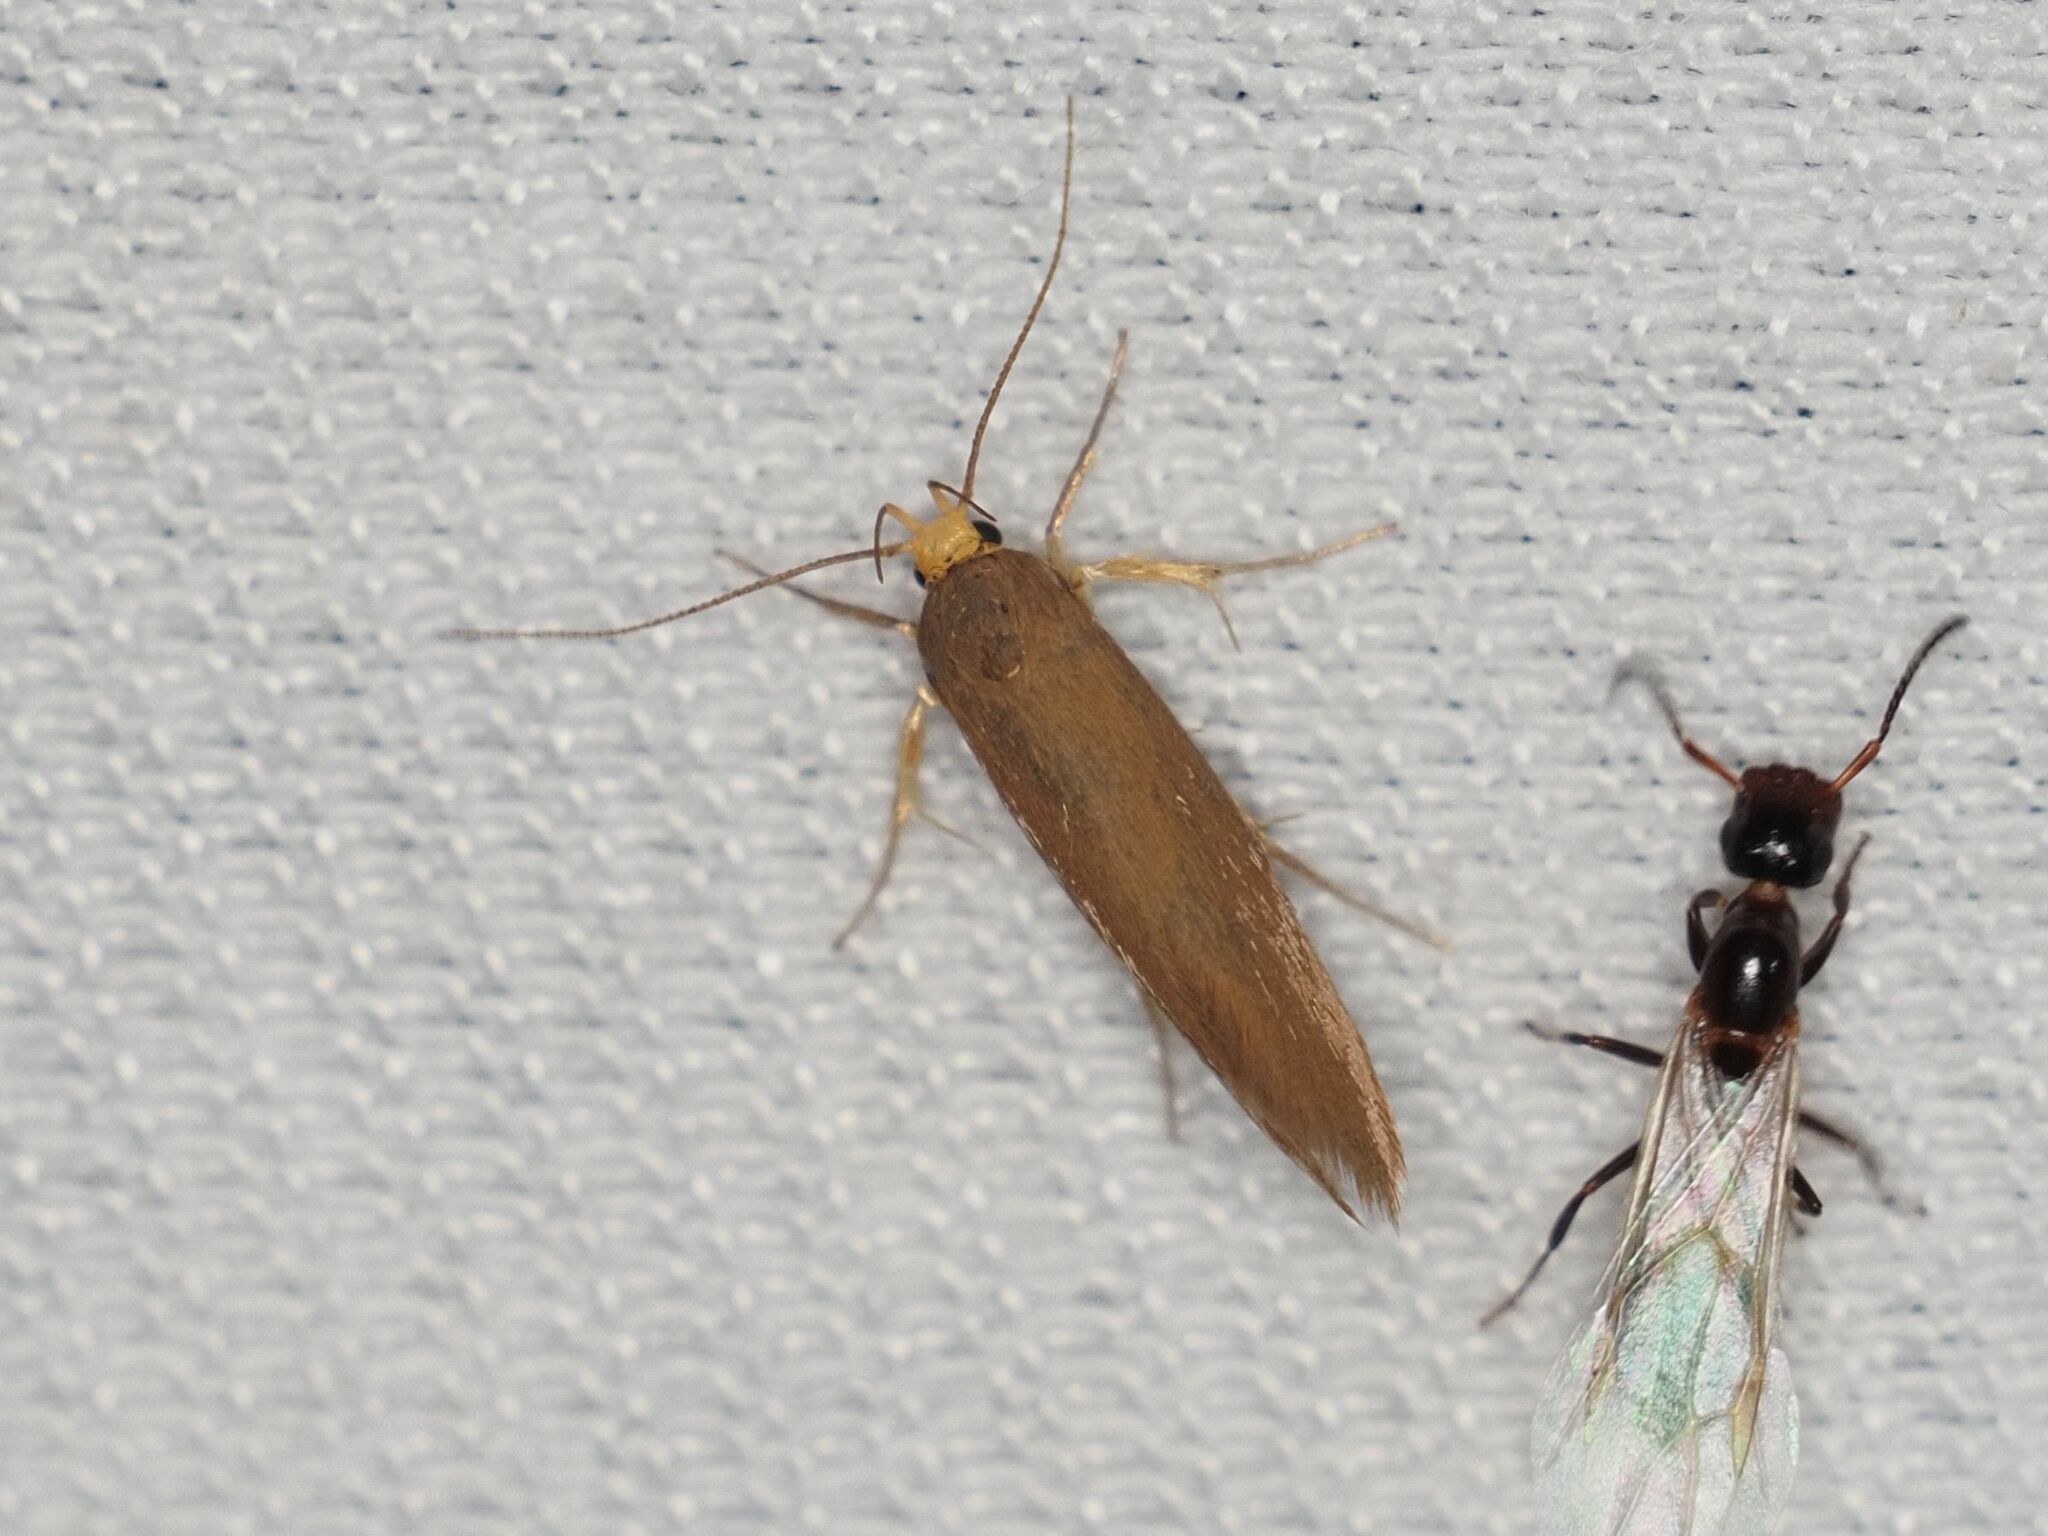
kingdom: Animalia
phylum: Arthropoda
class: Insecta
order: Lepidoptera
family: Oecophoridae
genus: Borkhausenia
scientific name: Borkhausenia Crassa unitella
